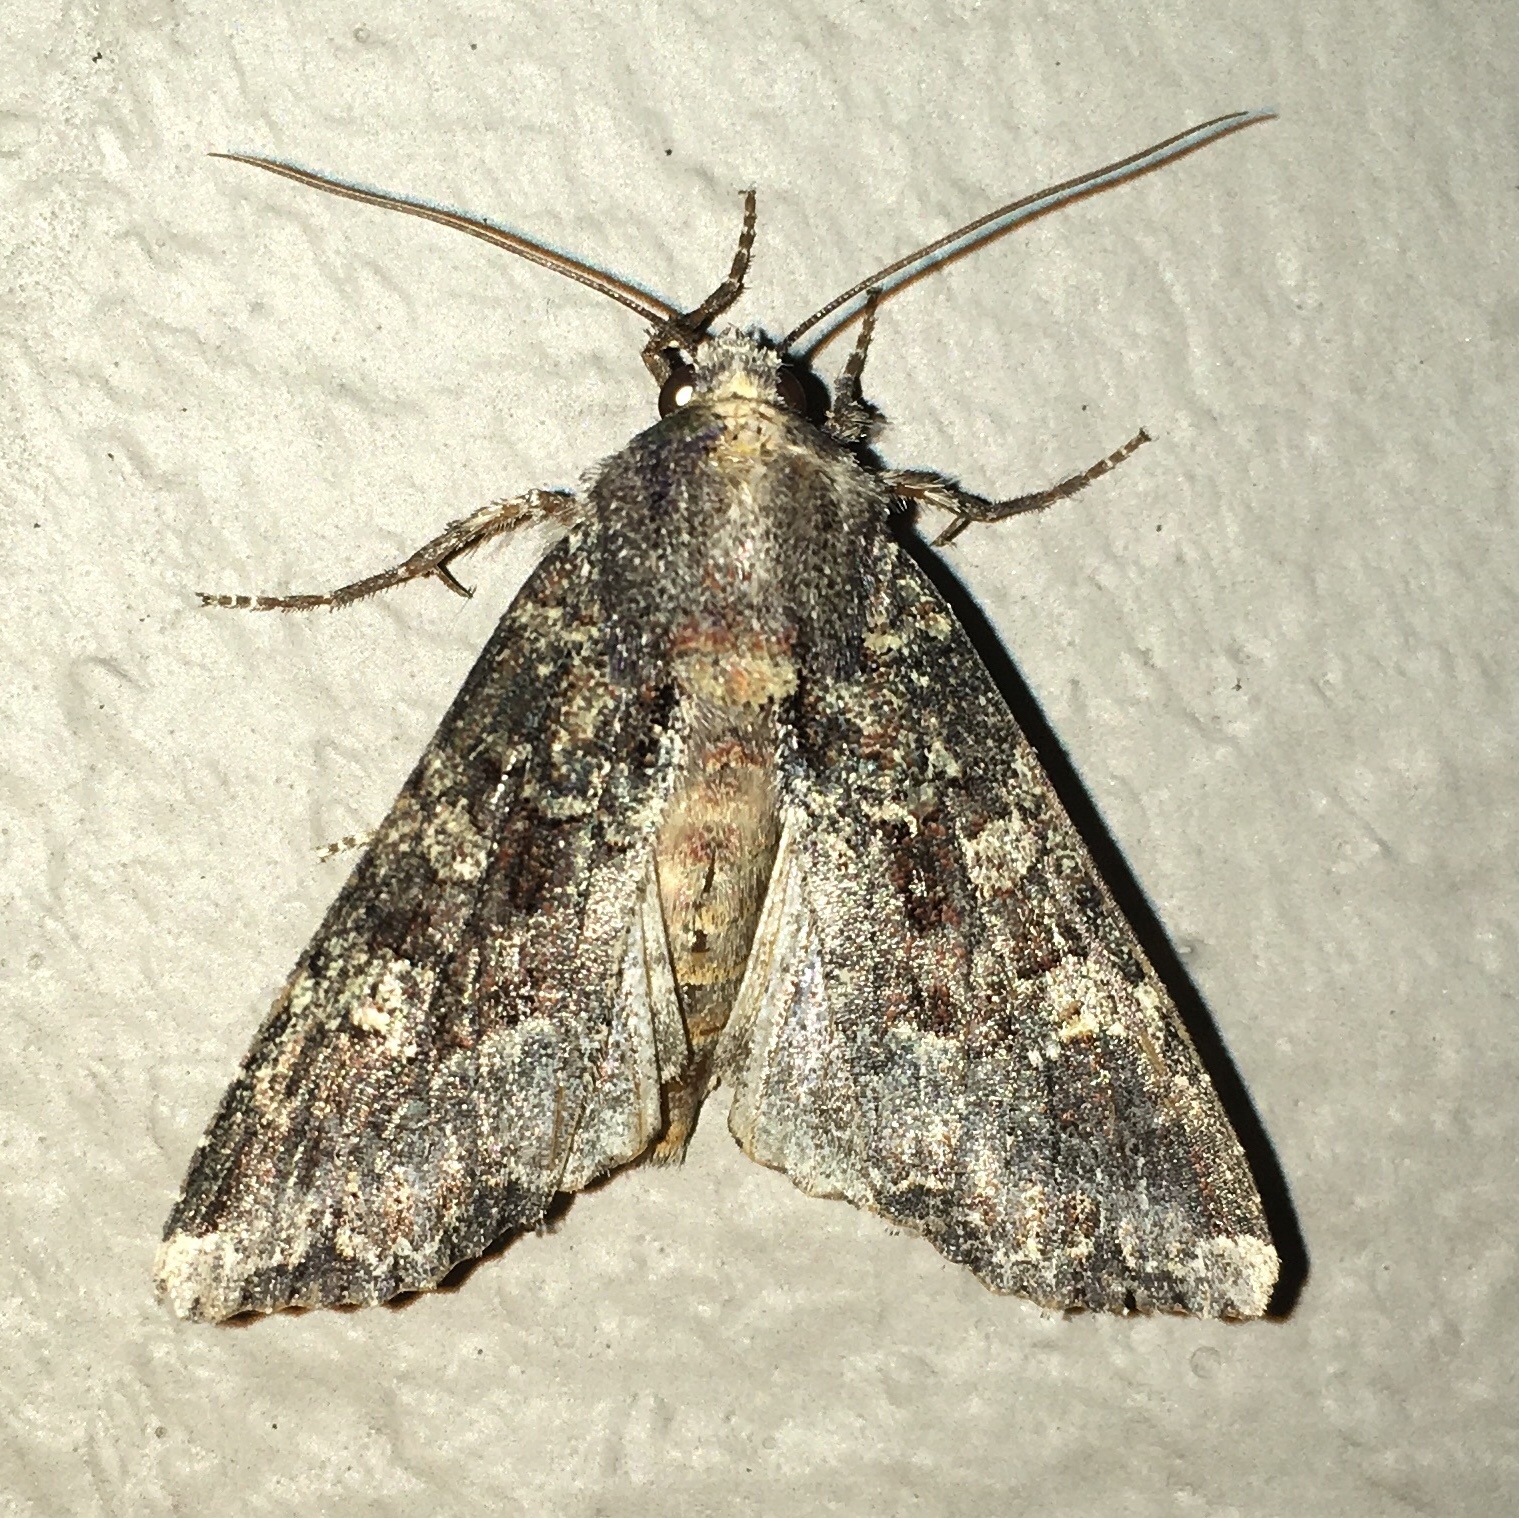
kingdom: Animalia
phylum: Arthropoda
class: Insecta
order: Lepidoptera
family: Noctuidae
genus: Apamea
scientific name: Apamea amputatrix
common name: Yellow-headed cutworm moth
